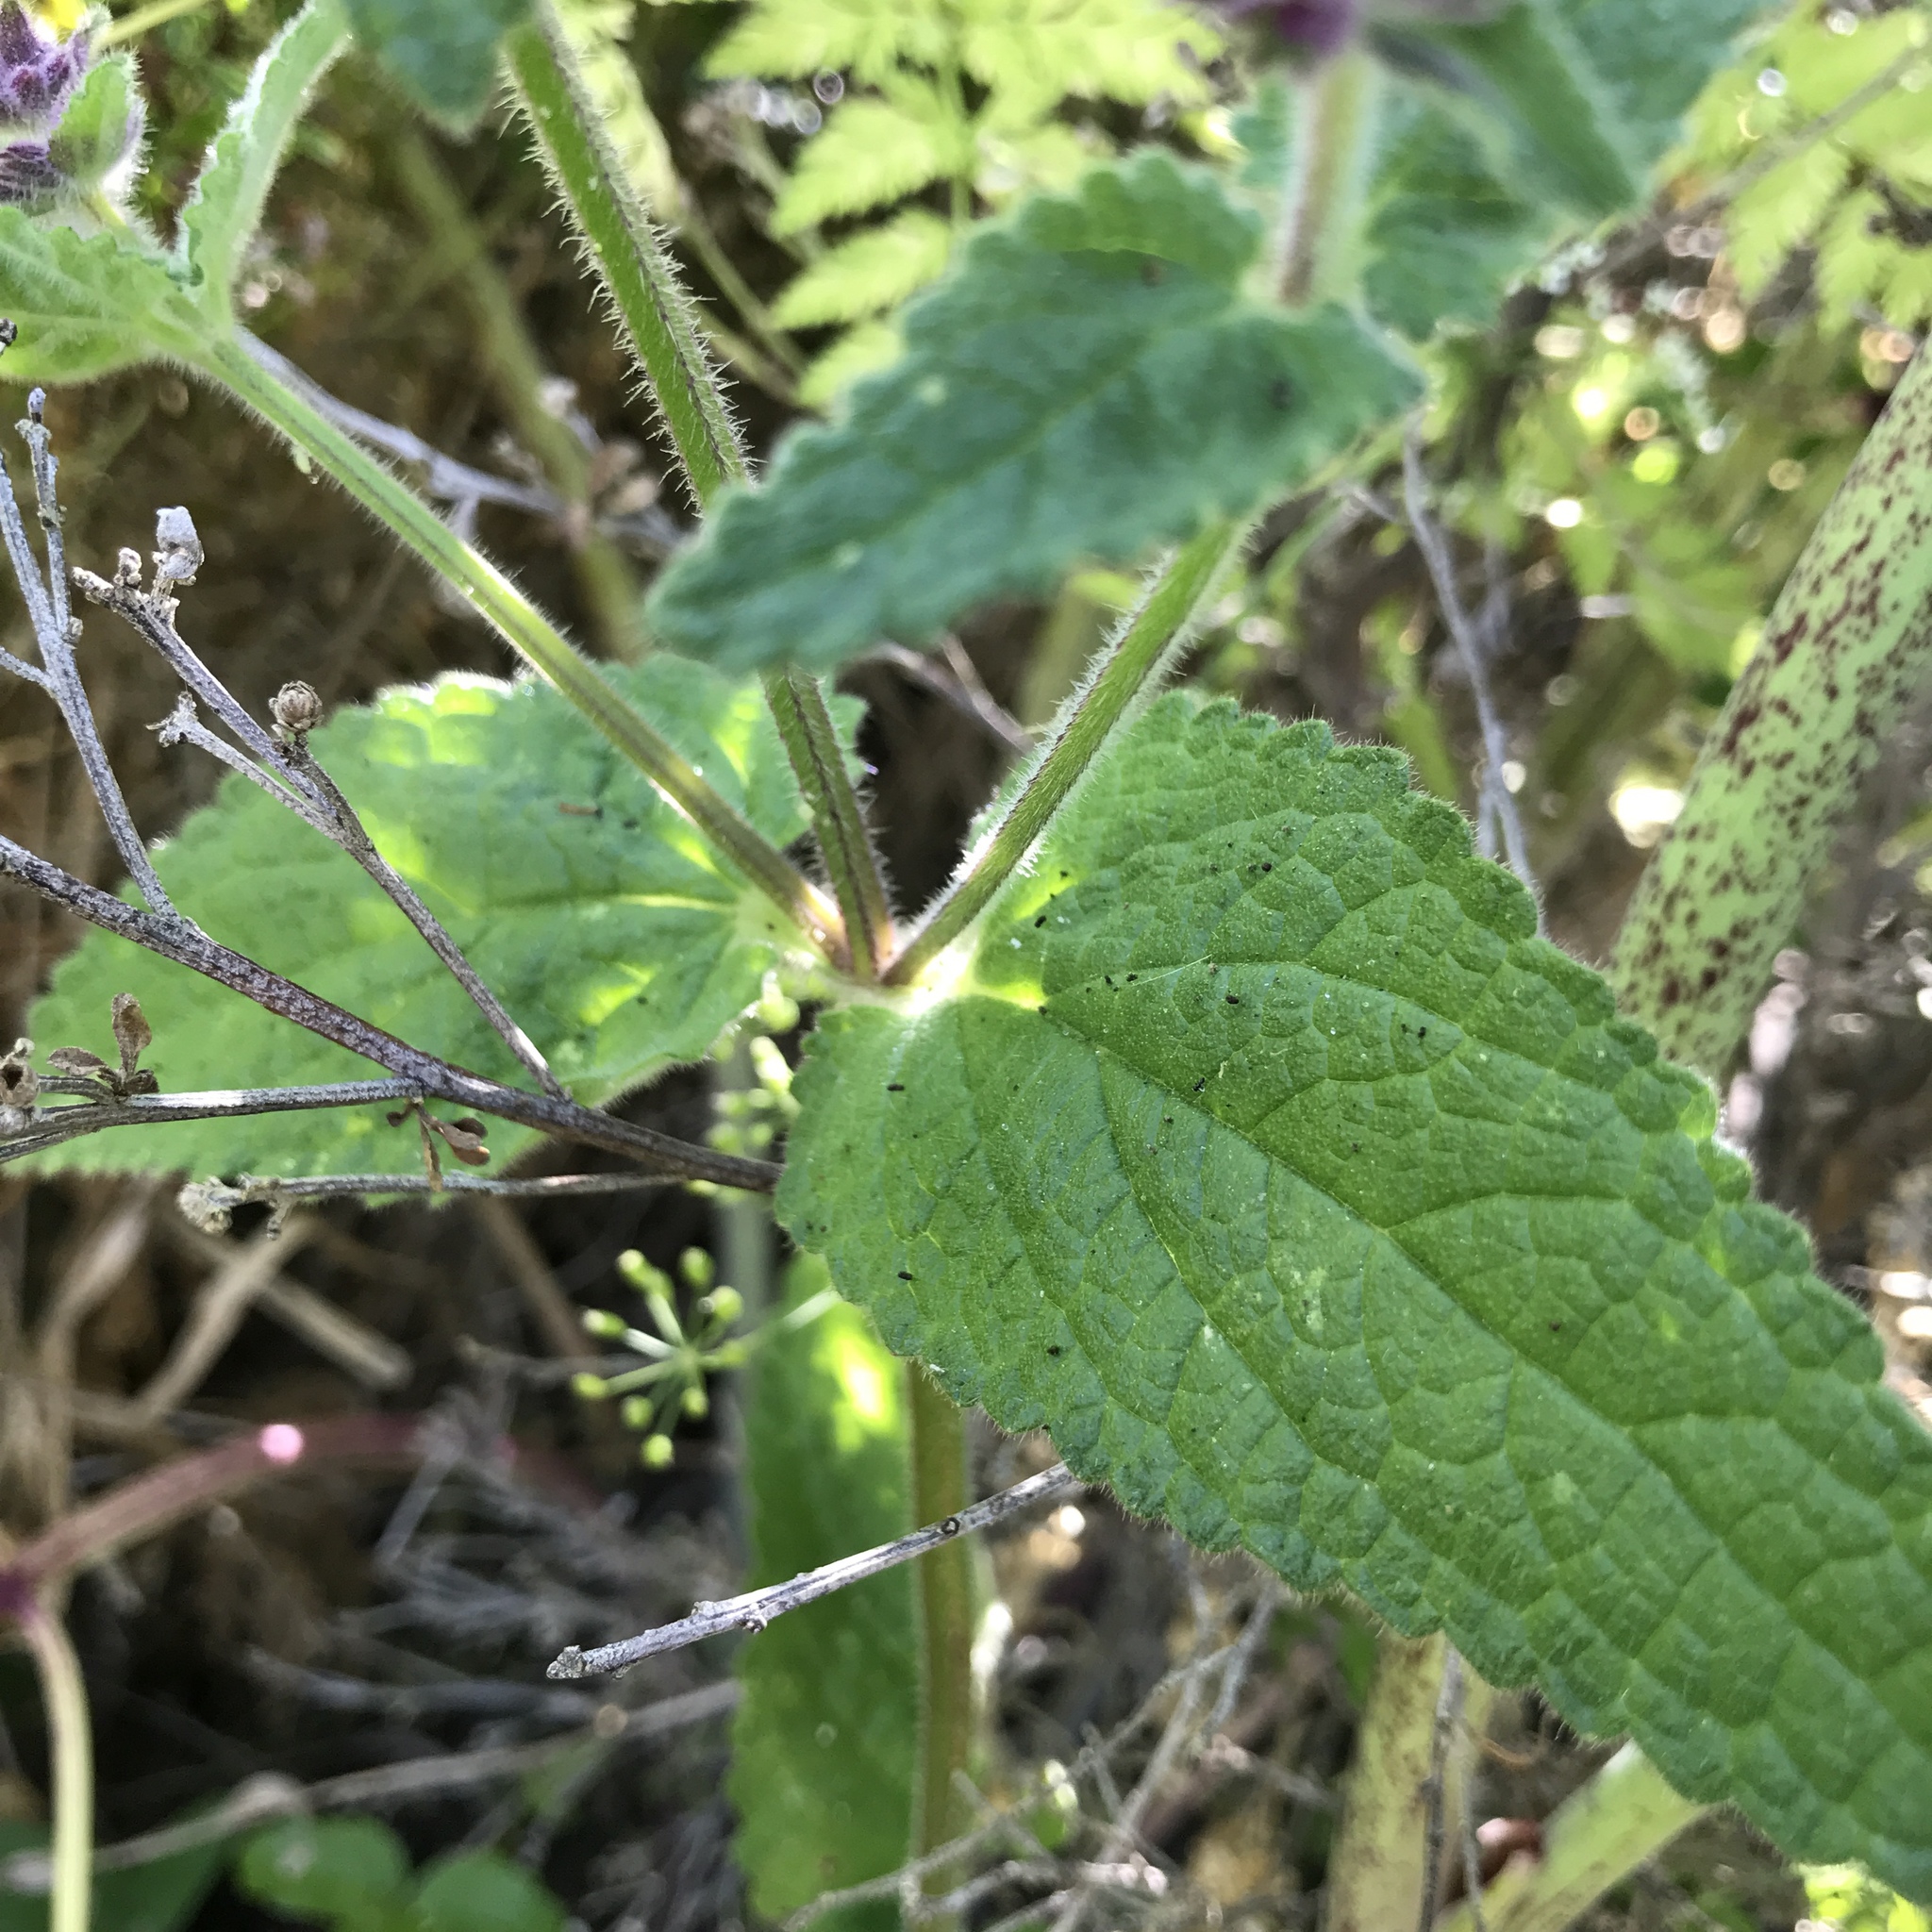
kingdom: Plantae
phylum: Tracheophyta
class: Magnoliopsida
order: Lamiales
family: Lamiaceae
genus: Stachys
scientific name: Stachys bullata
